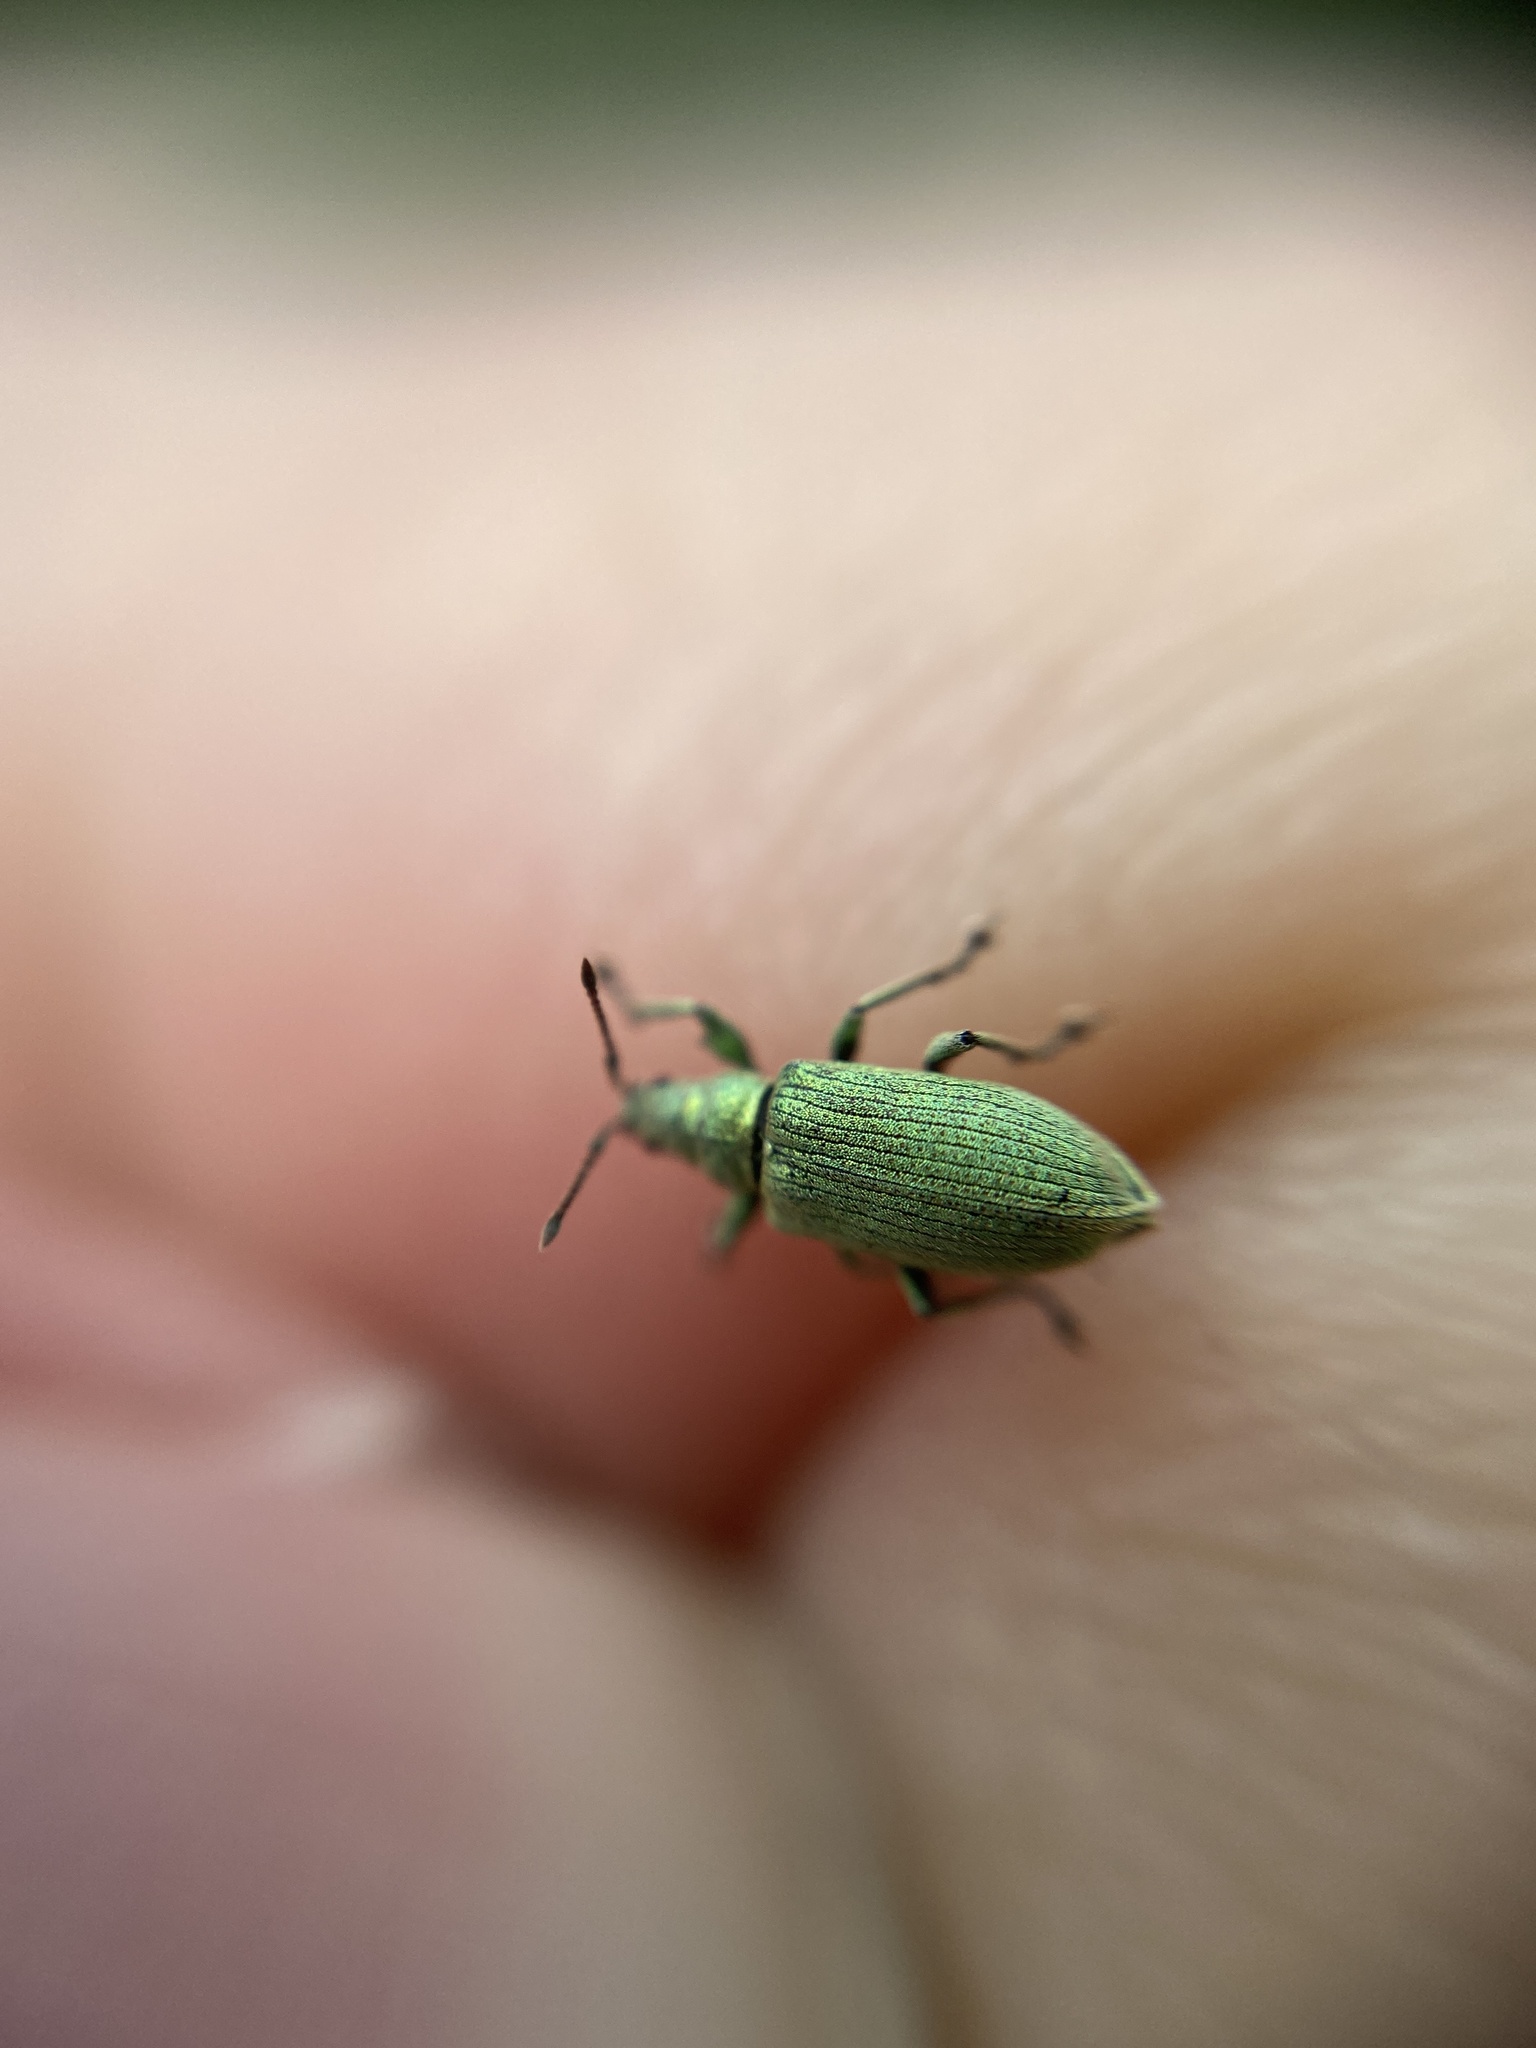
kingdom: Animalia
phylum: Arthropoda
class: Insecta
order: Coleoptera
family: Curculionidae
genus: Phyllobius
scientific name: Phyllobius maculicornis
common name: Green leaf weevil
